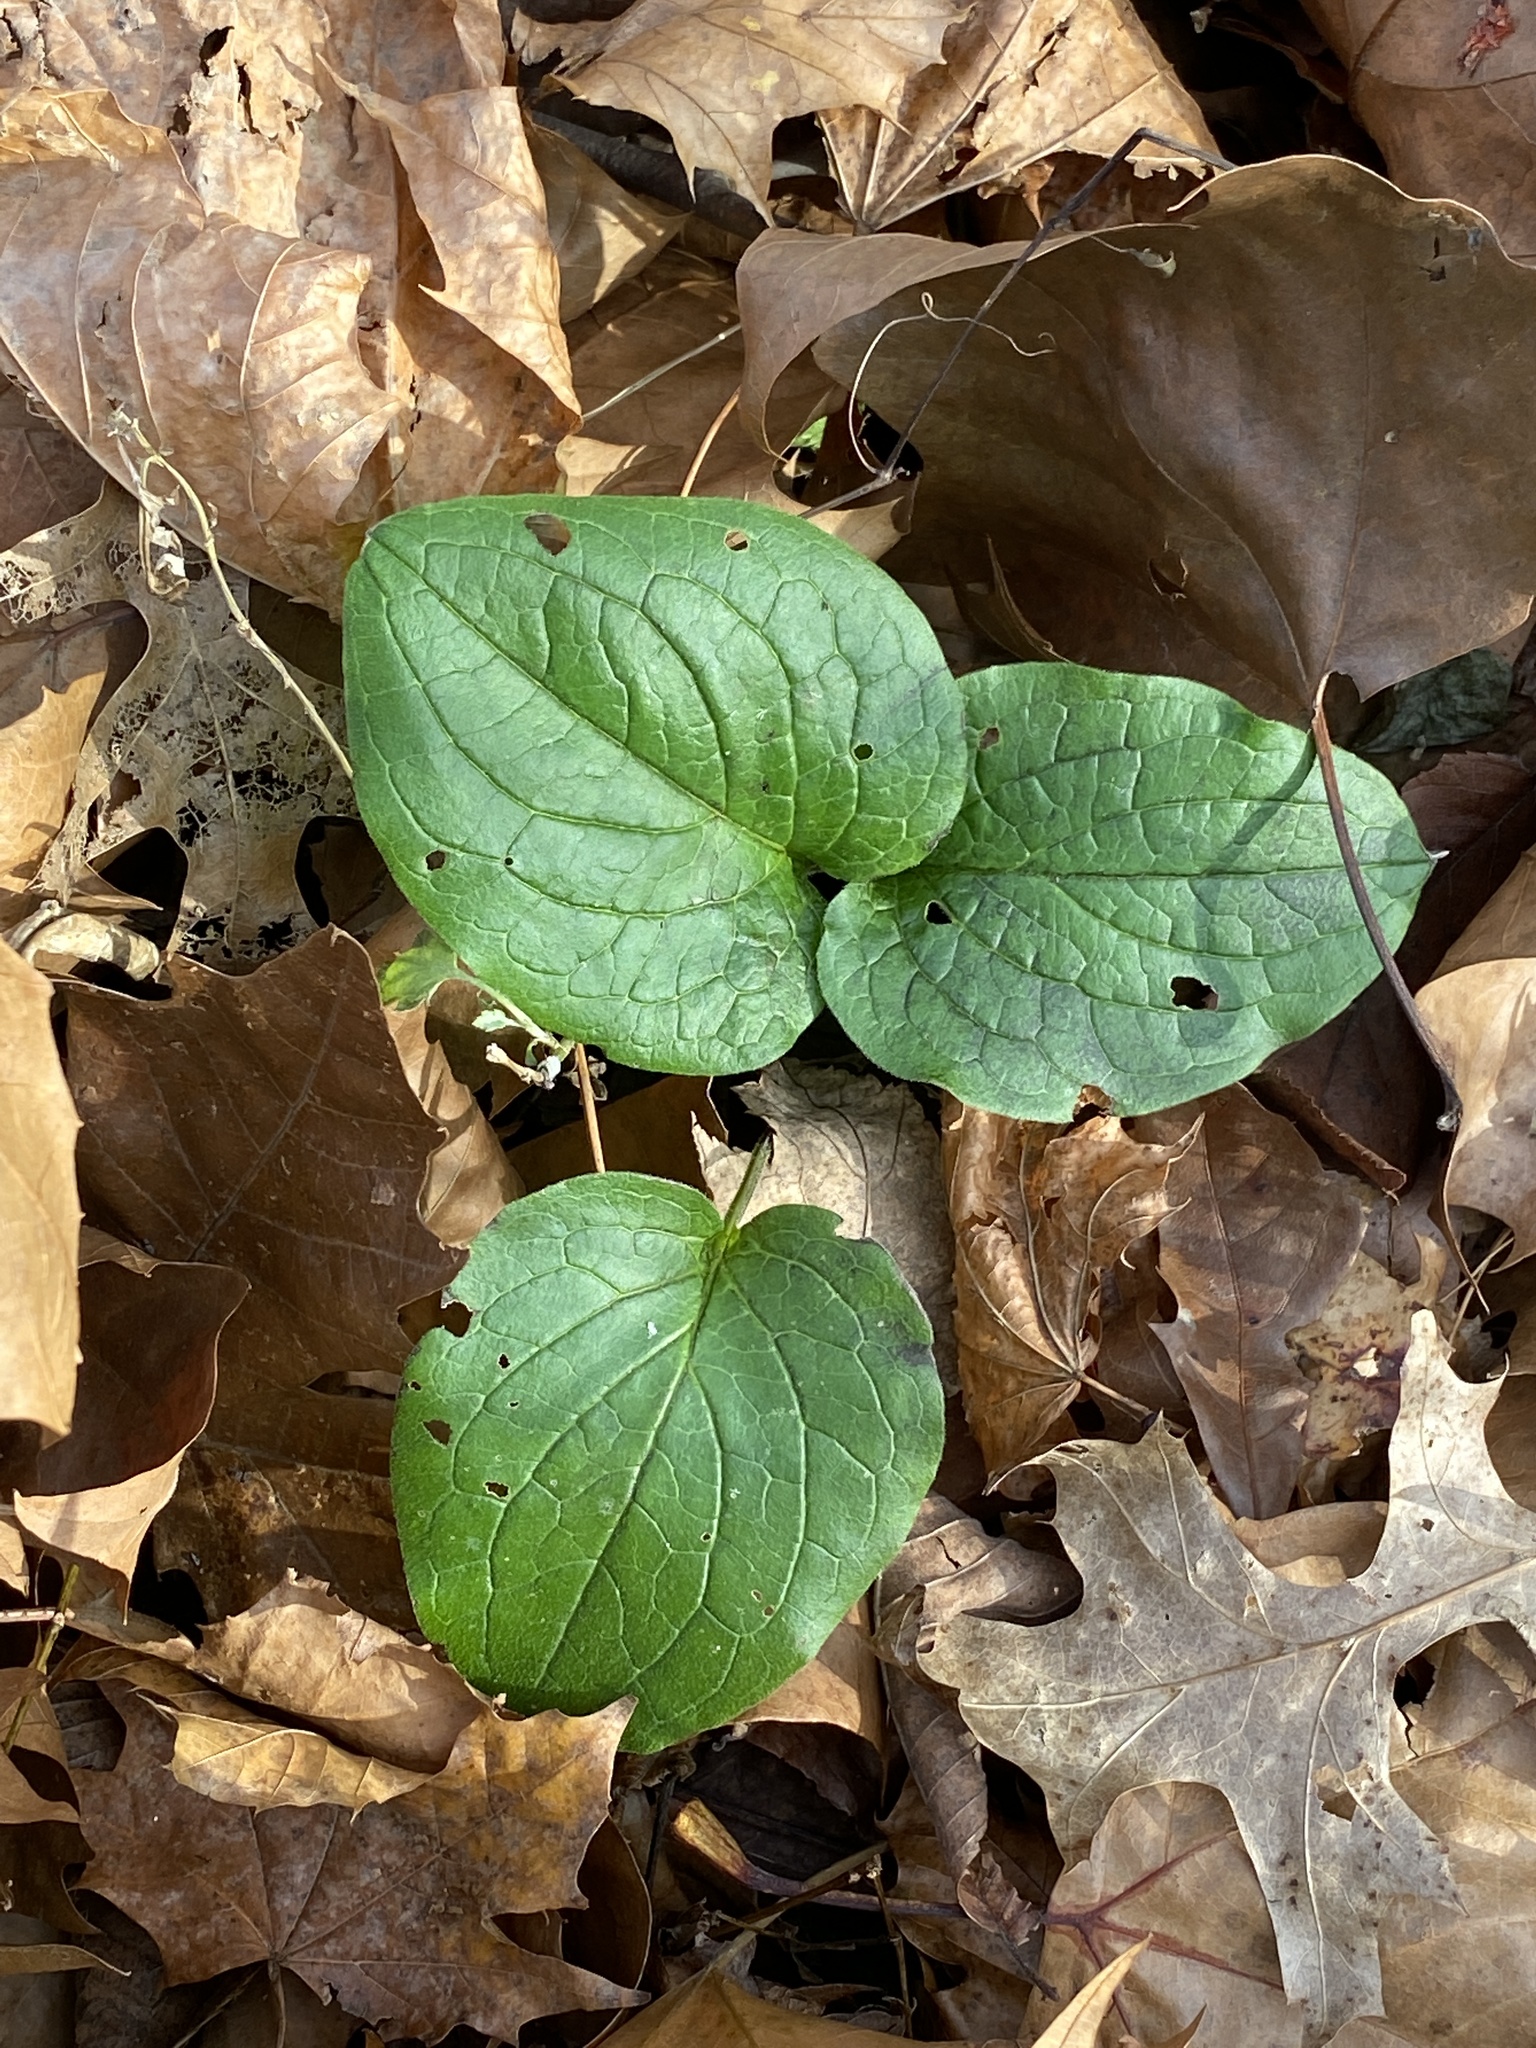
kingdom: Plantae
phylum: Tracheophyta
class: Magnoliopsida
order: Boraginales
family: Boraginaceae
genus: Hackelia
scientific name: Hackelia virginiana
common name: Beggar's-lice
